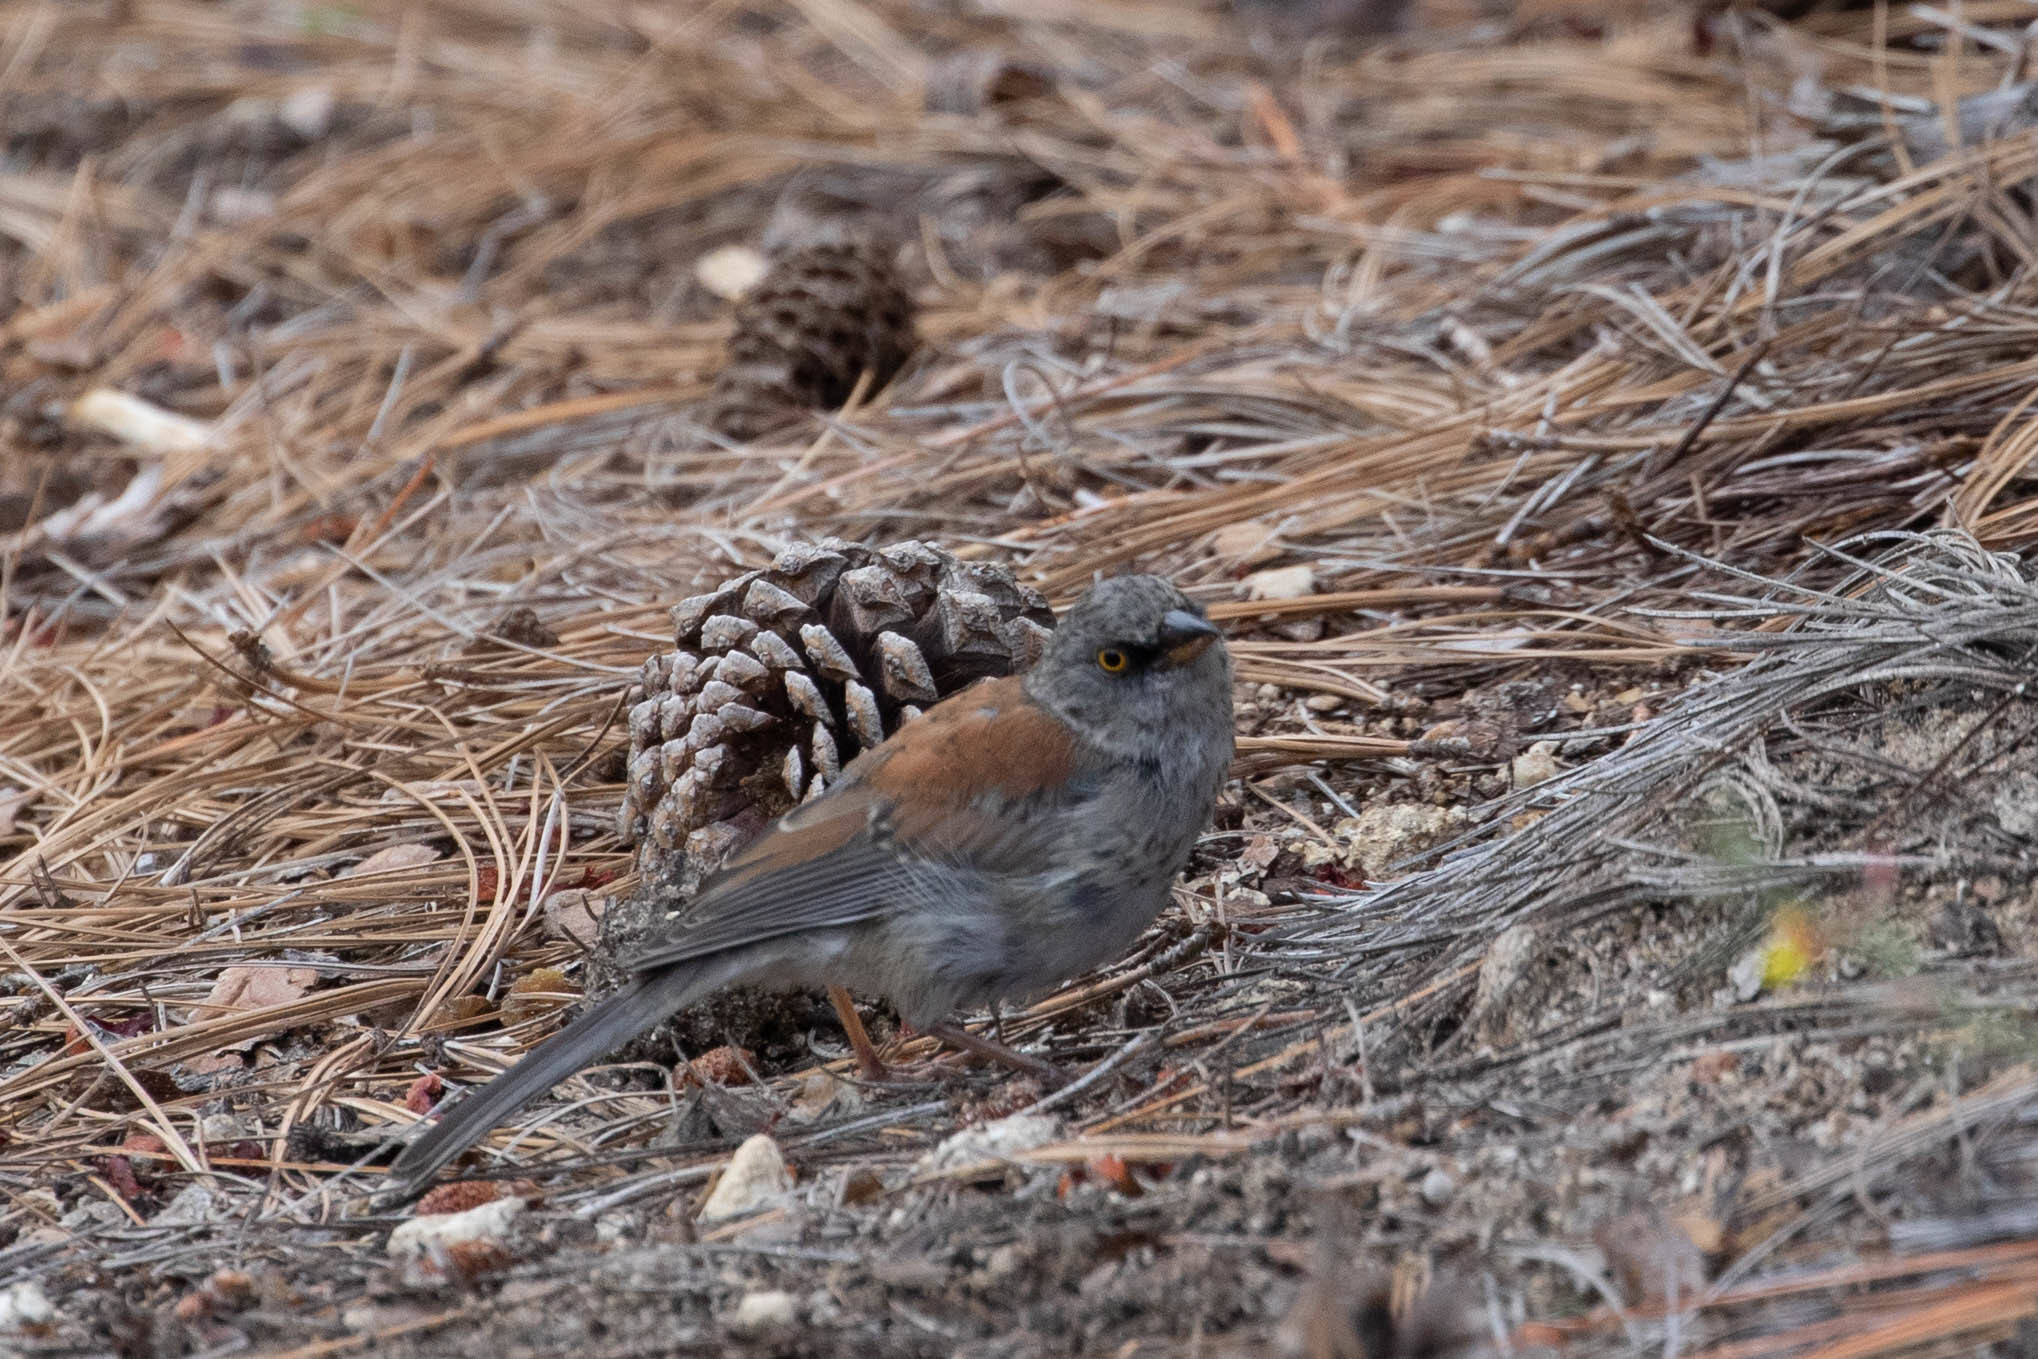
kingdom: Animalia
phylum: Chordata
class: Aves
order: Passeriformes
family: Passerellidae
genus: Junco
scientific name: Junco phaeonotus
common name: Yellow-eyed junco
